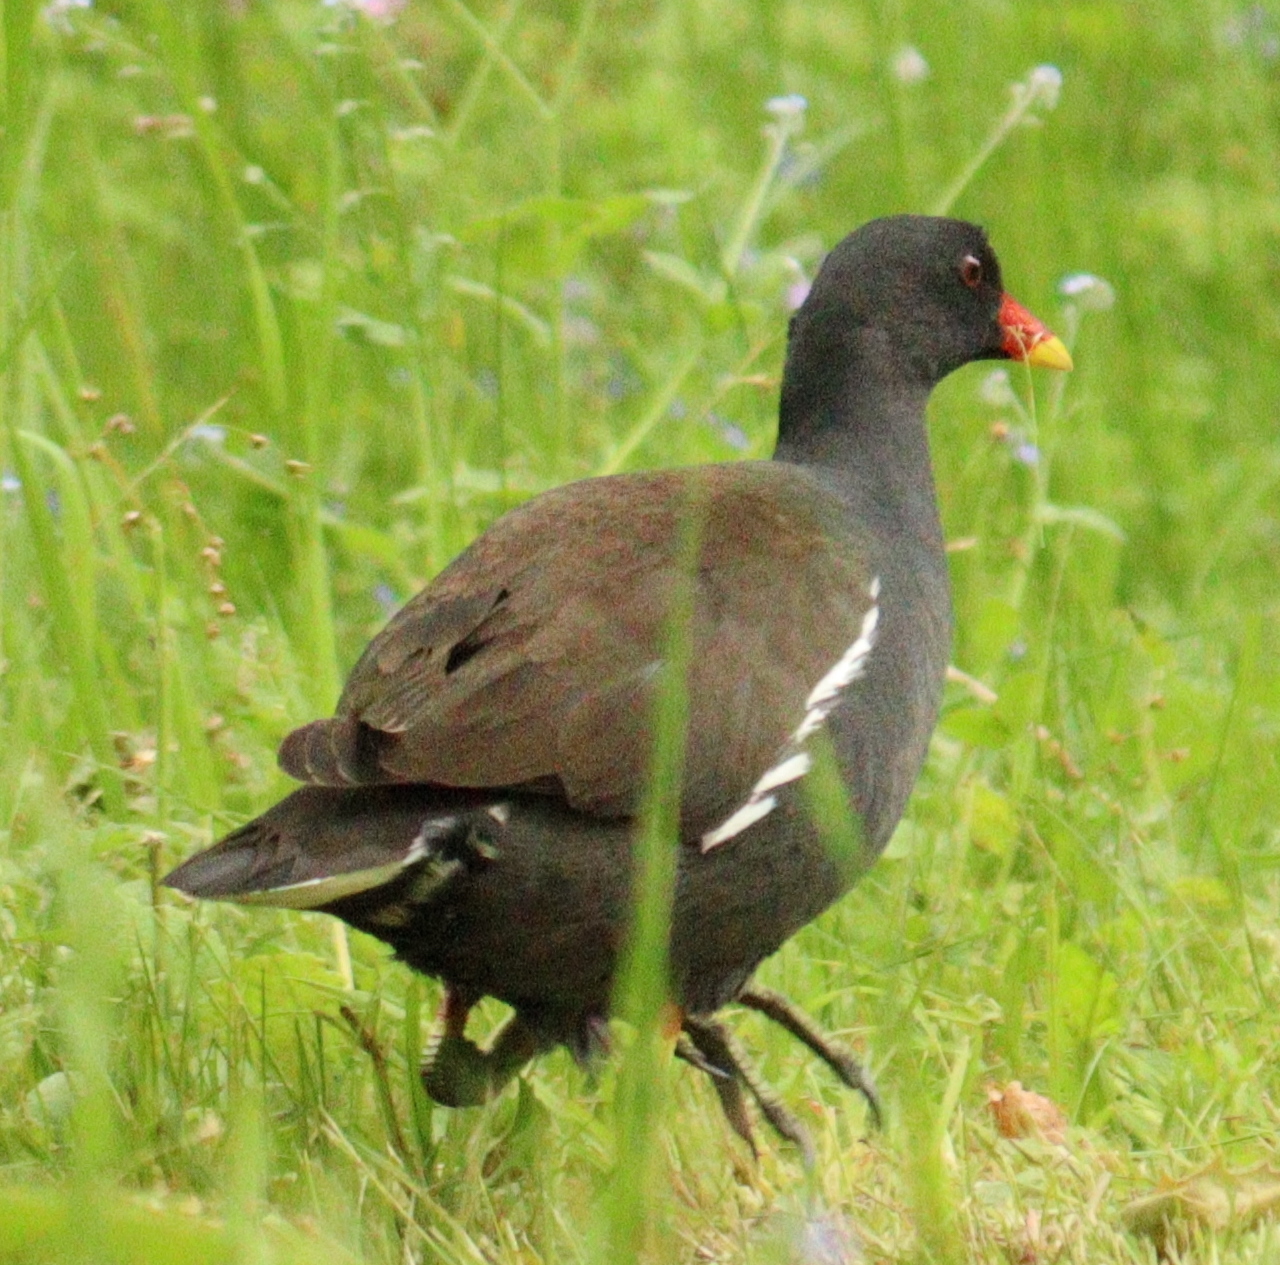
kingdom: Animalia
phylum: Chordata
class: Aves
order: Gruiformes
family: Rallidae
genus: Gallinula
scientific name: Gallinula chloropus
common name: Common moorhen
